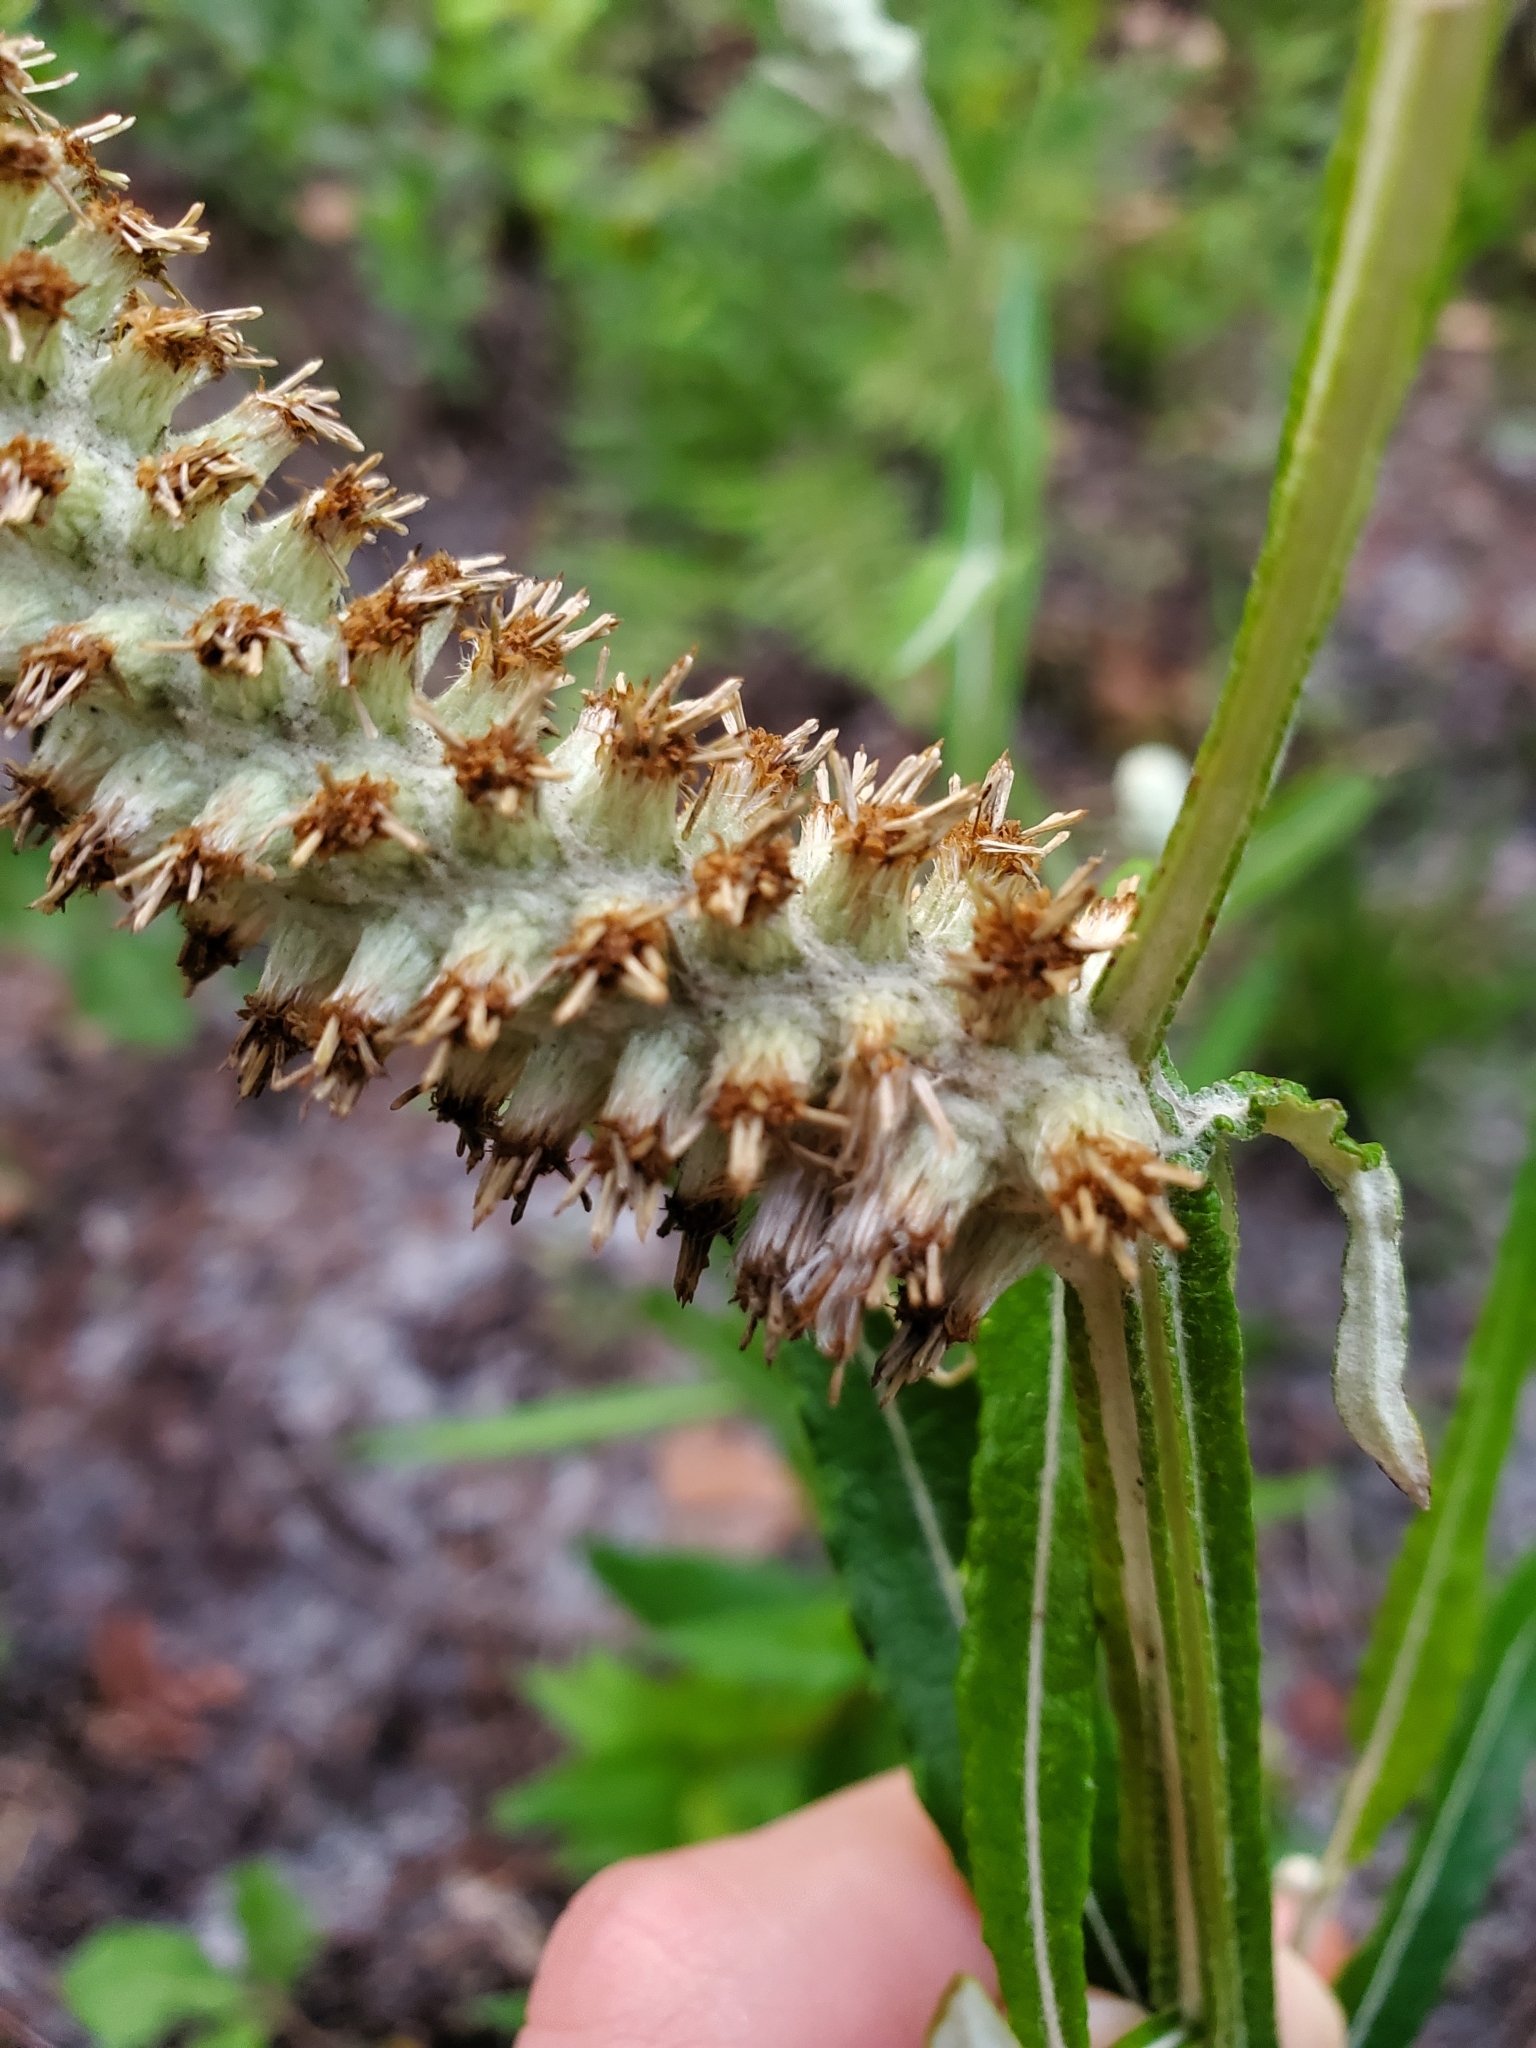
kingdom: Plantae
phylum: Tracheophyta
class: Magnoliopsida
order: Asterales
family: Asteraceae
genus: Pterocaulon
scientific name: Pterocaulon pycnostachyum
